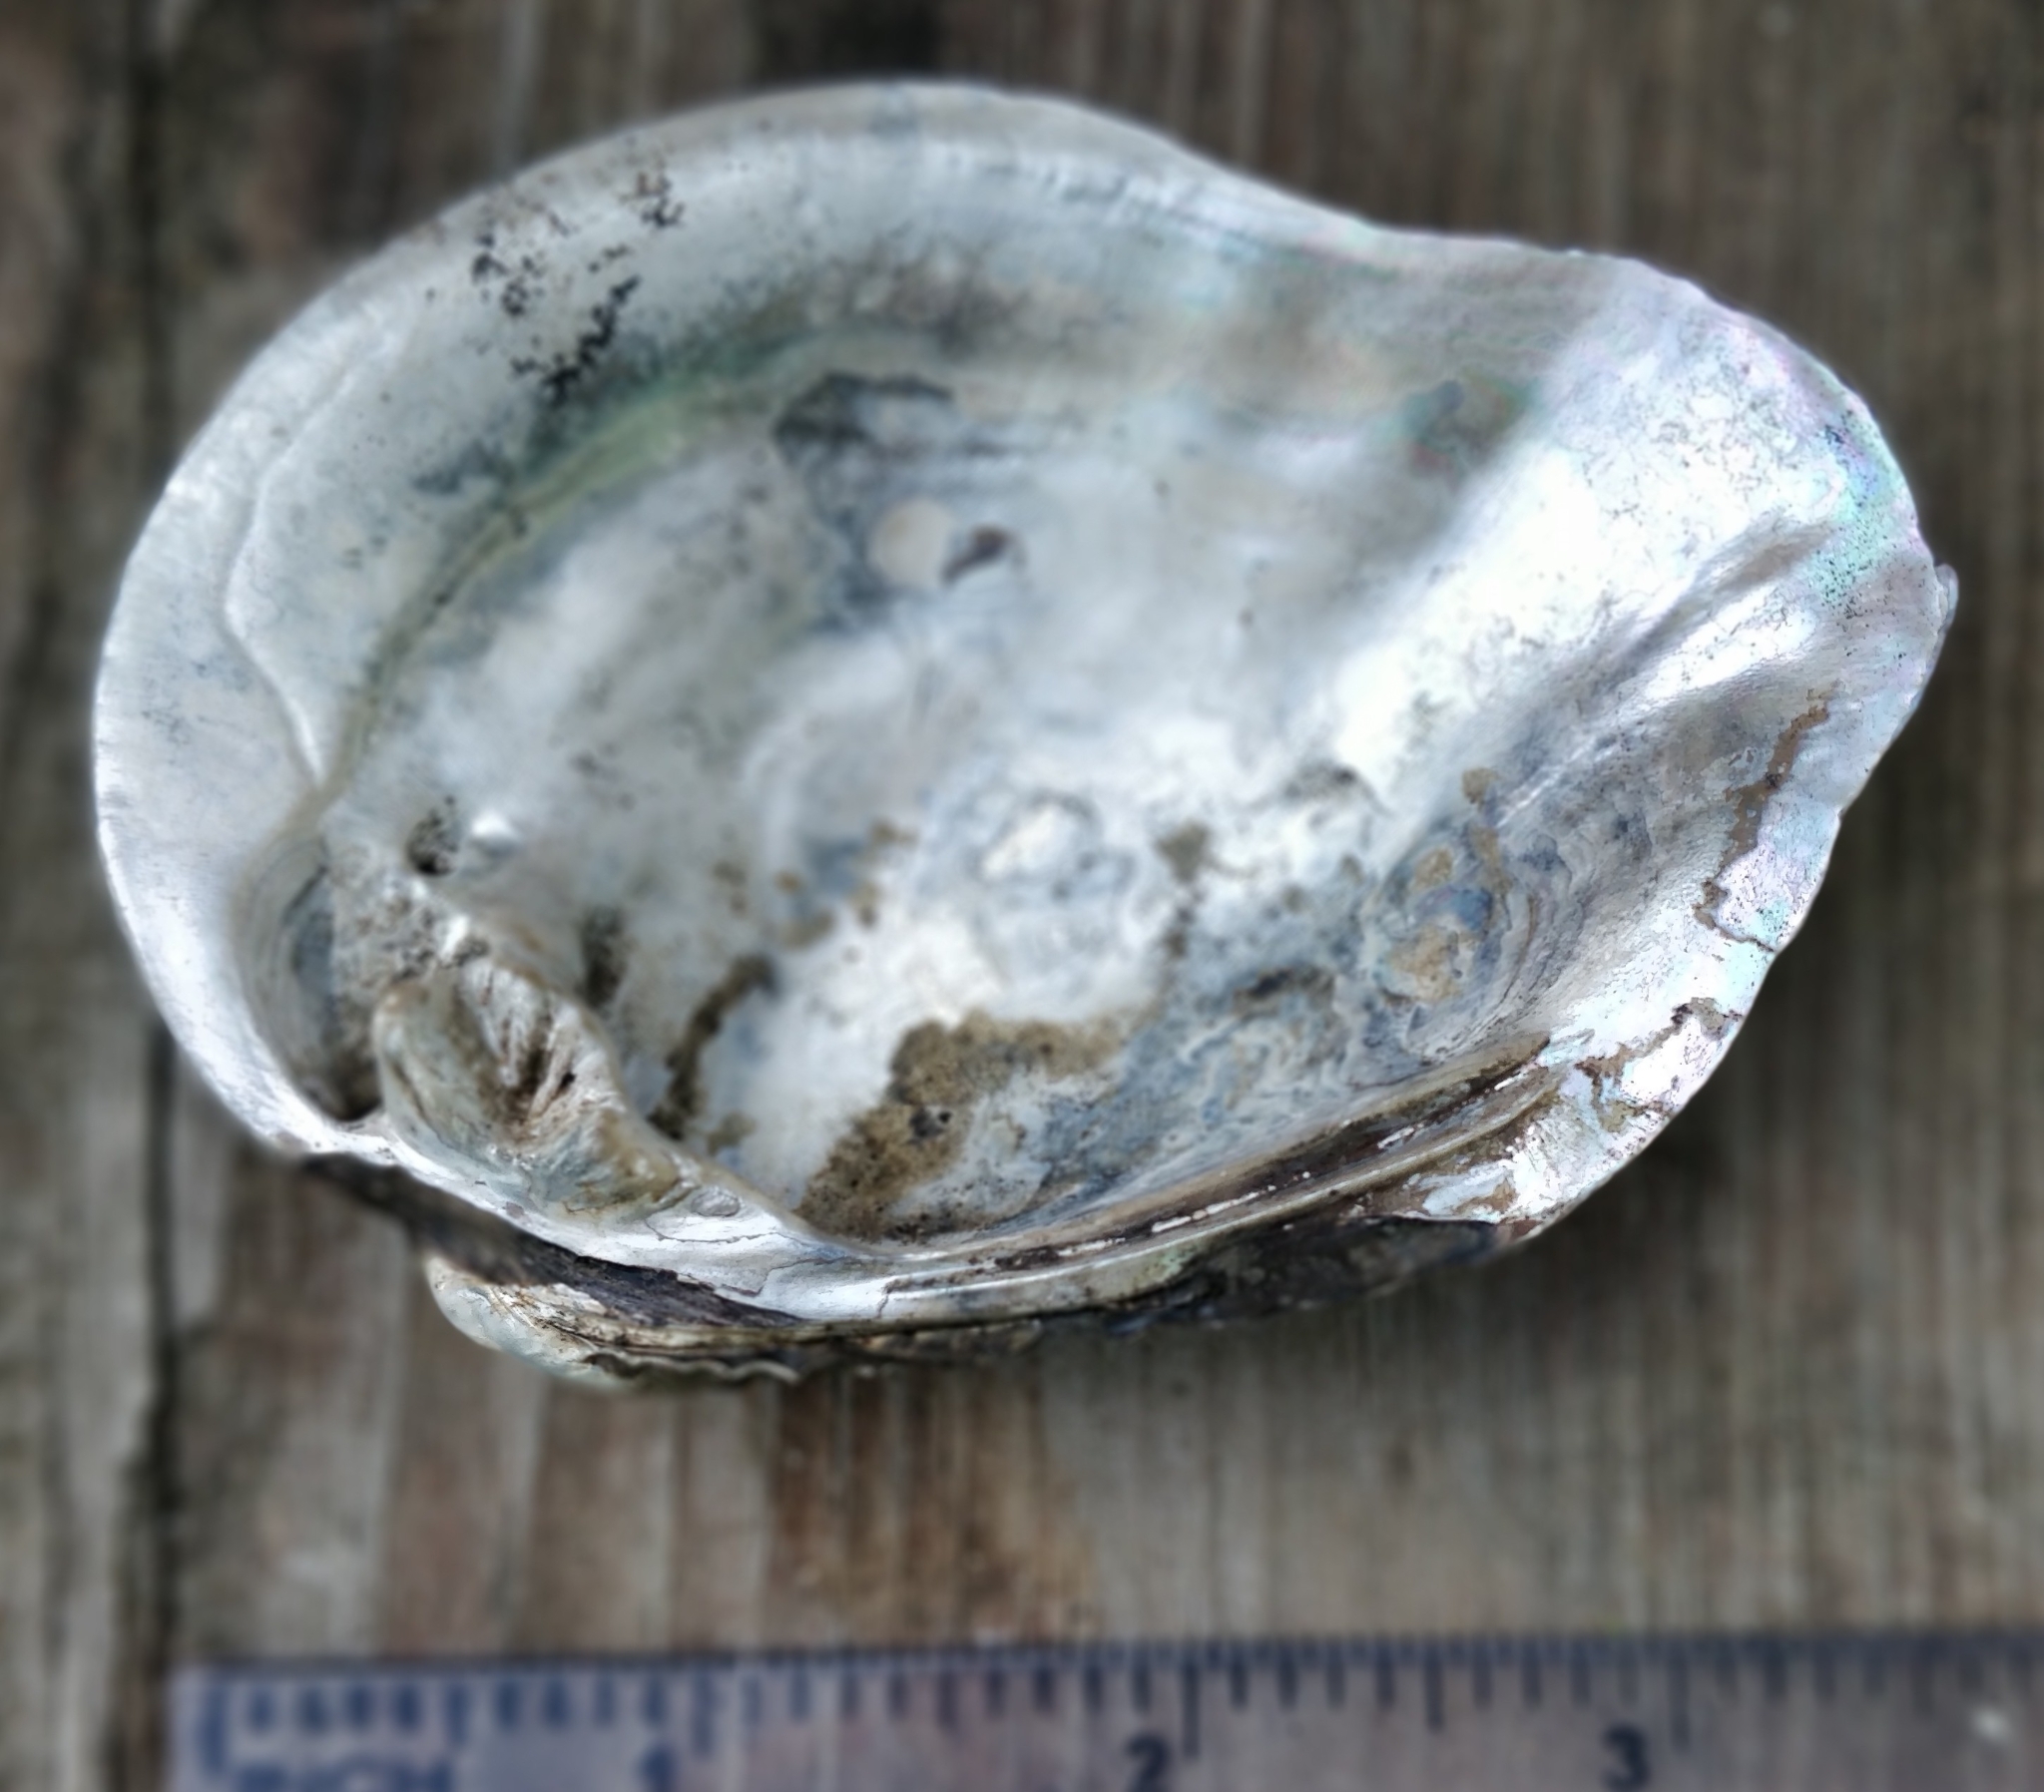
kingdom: Animalia
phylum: Mollusca
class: Bivalvia
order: Unionida
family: Unionidae
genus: Tritogonia
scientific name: Tritogonia nobilis
